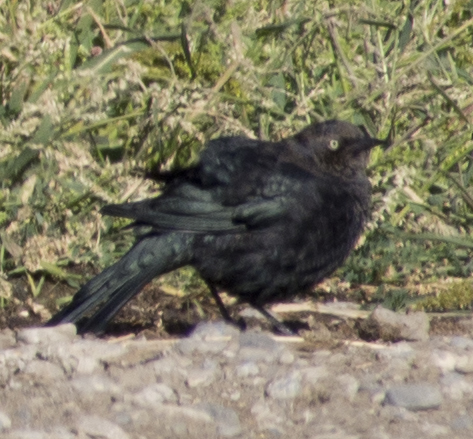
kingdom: Animalia
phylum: Chordata
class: Aves
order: Passeriformes
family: Icteridae
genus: Euphagus
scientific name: Euphagus cyanocephalus
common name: Brewer's blackbird
